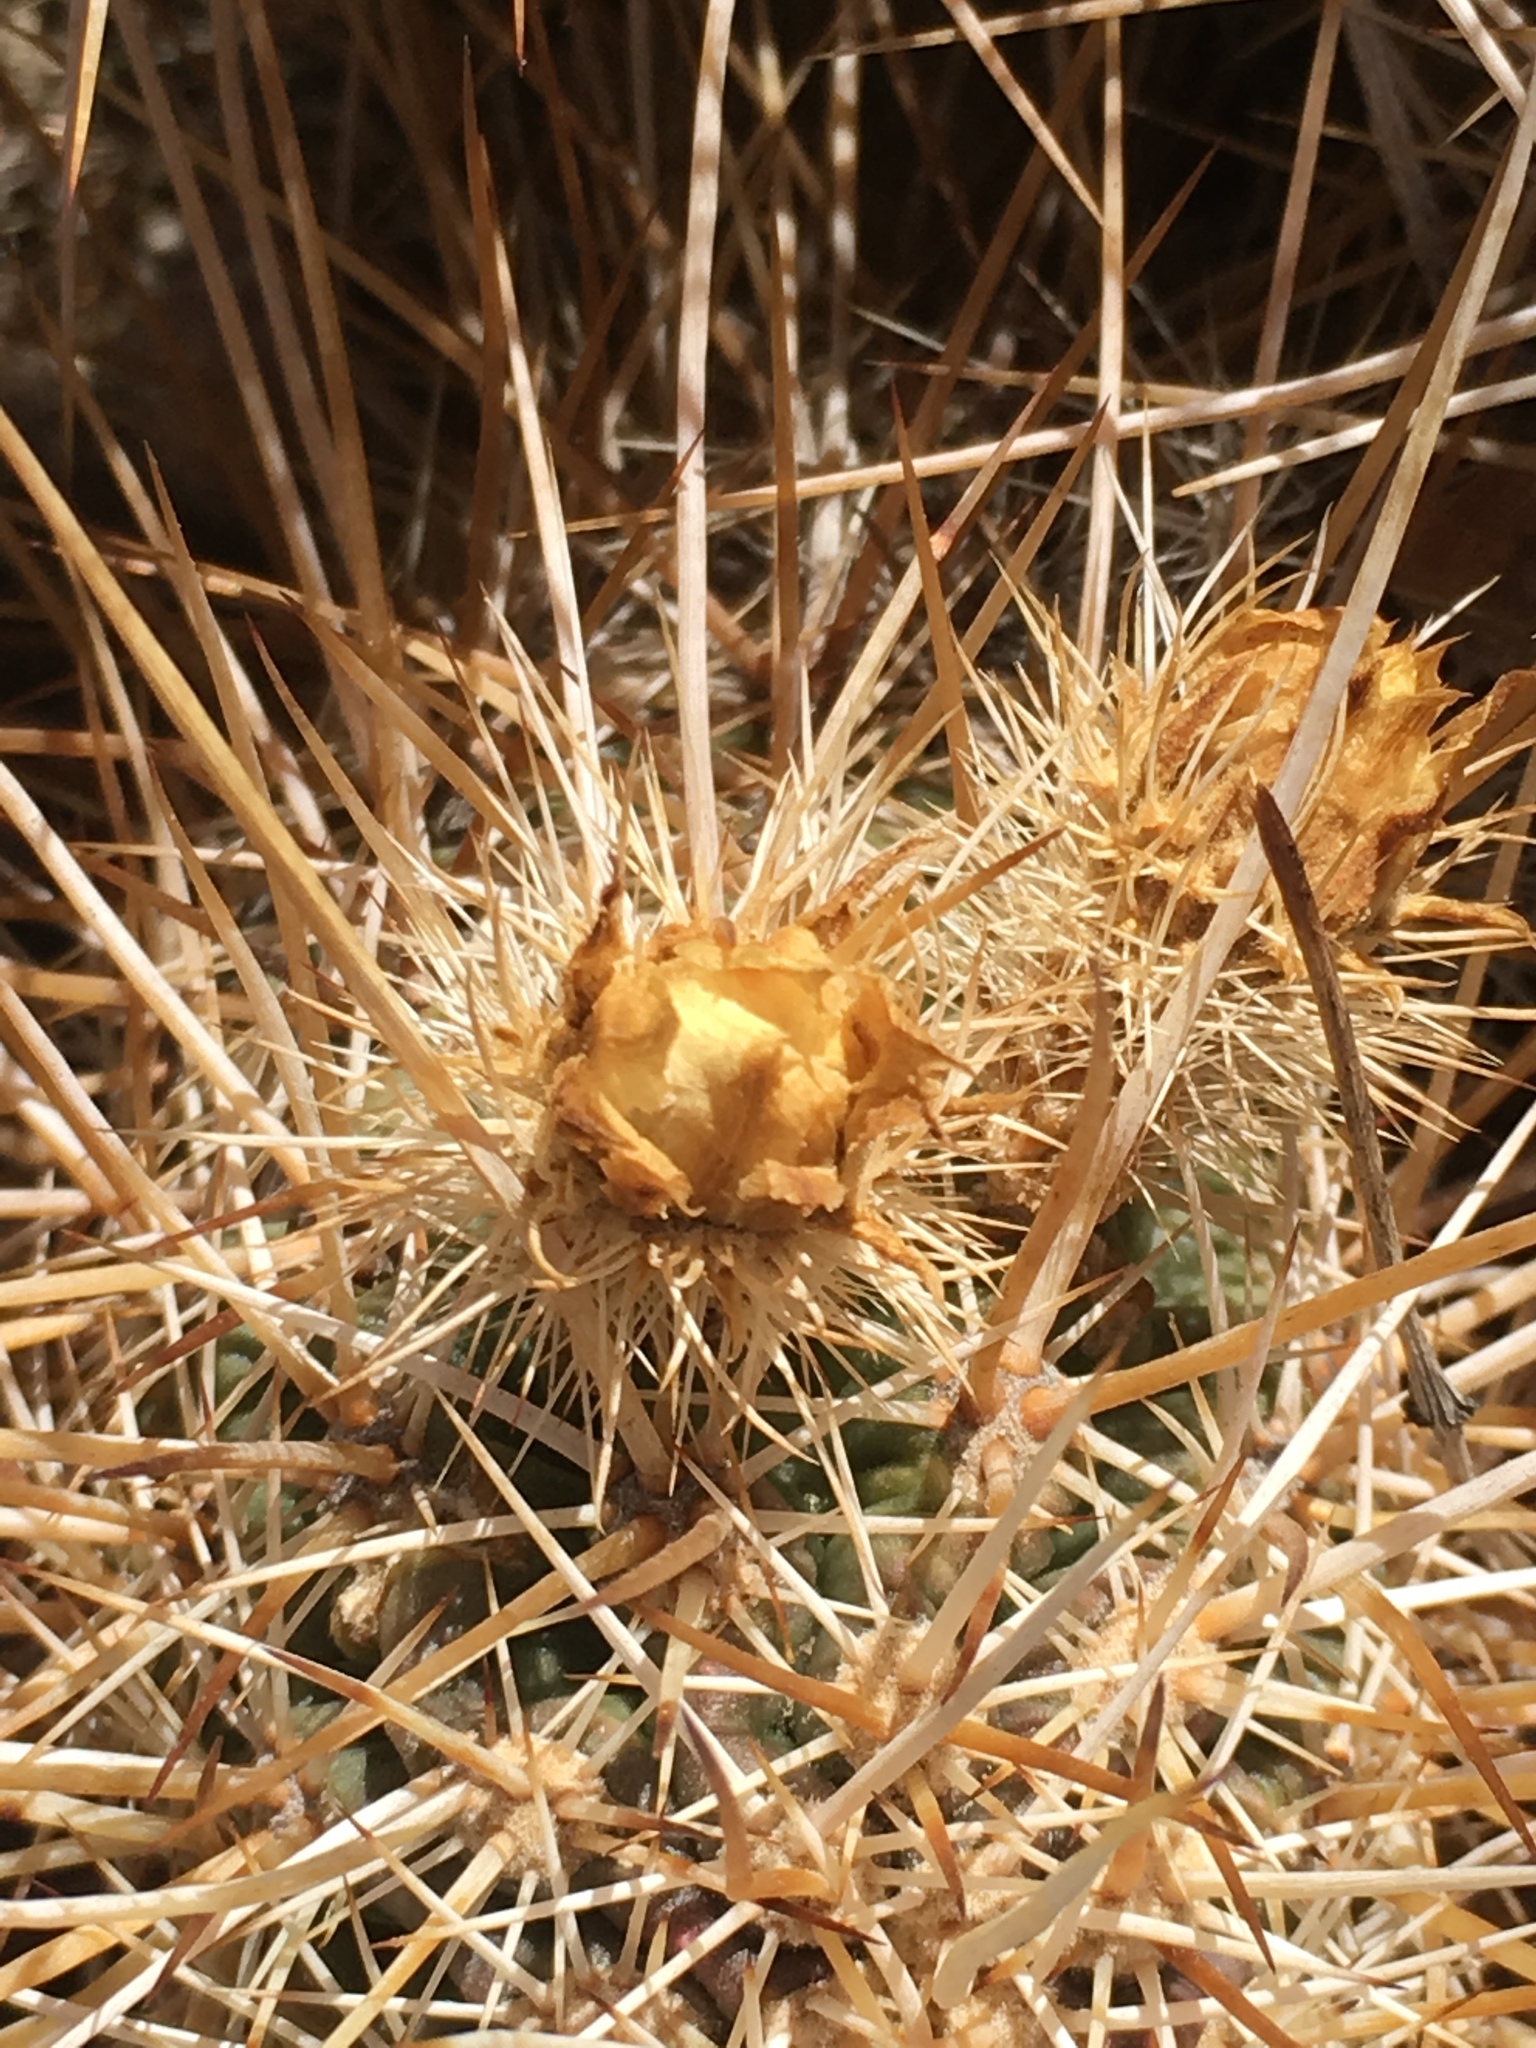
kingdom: Plantae
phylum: Tracheophyta
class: Magnoliopsida
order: Caryophyllales
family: Cactaceae
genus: Echinocereus
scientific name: Echinocereus engelmannii
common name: Engelmann's hedgehog cactus
